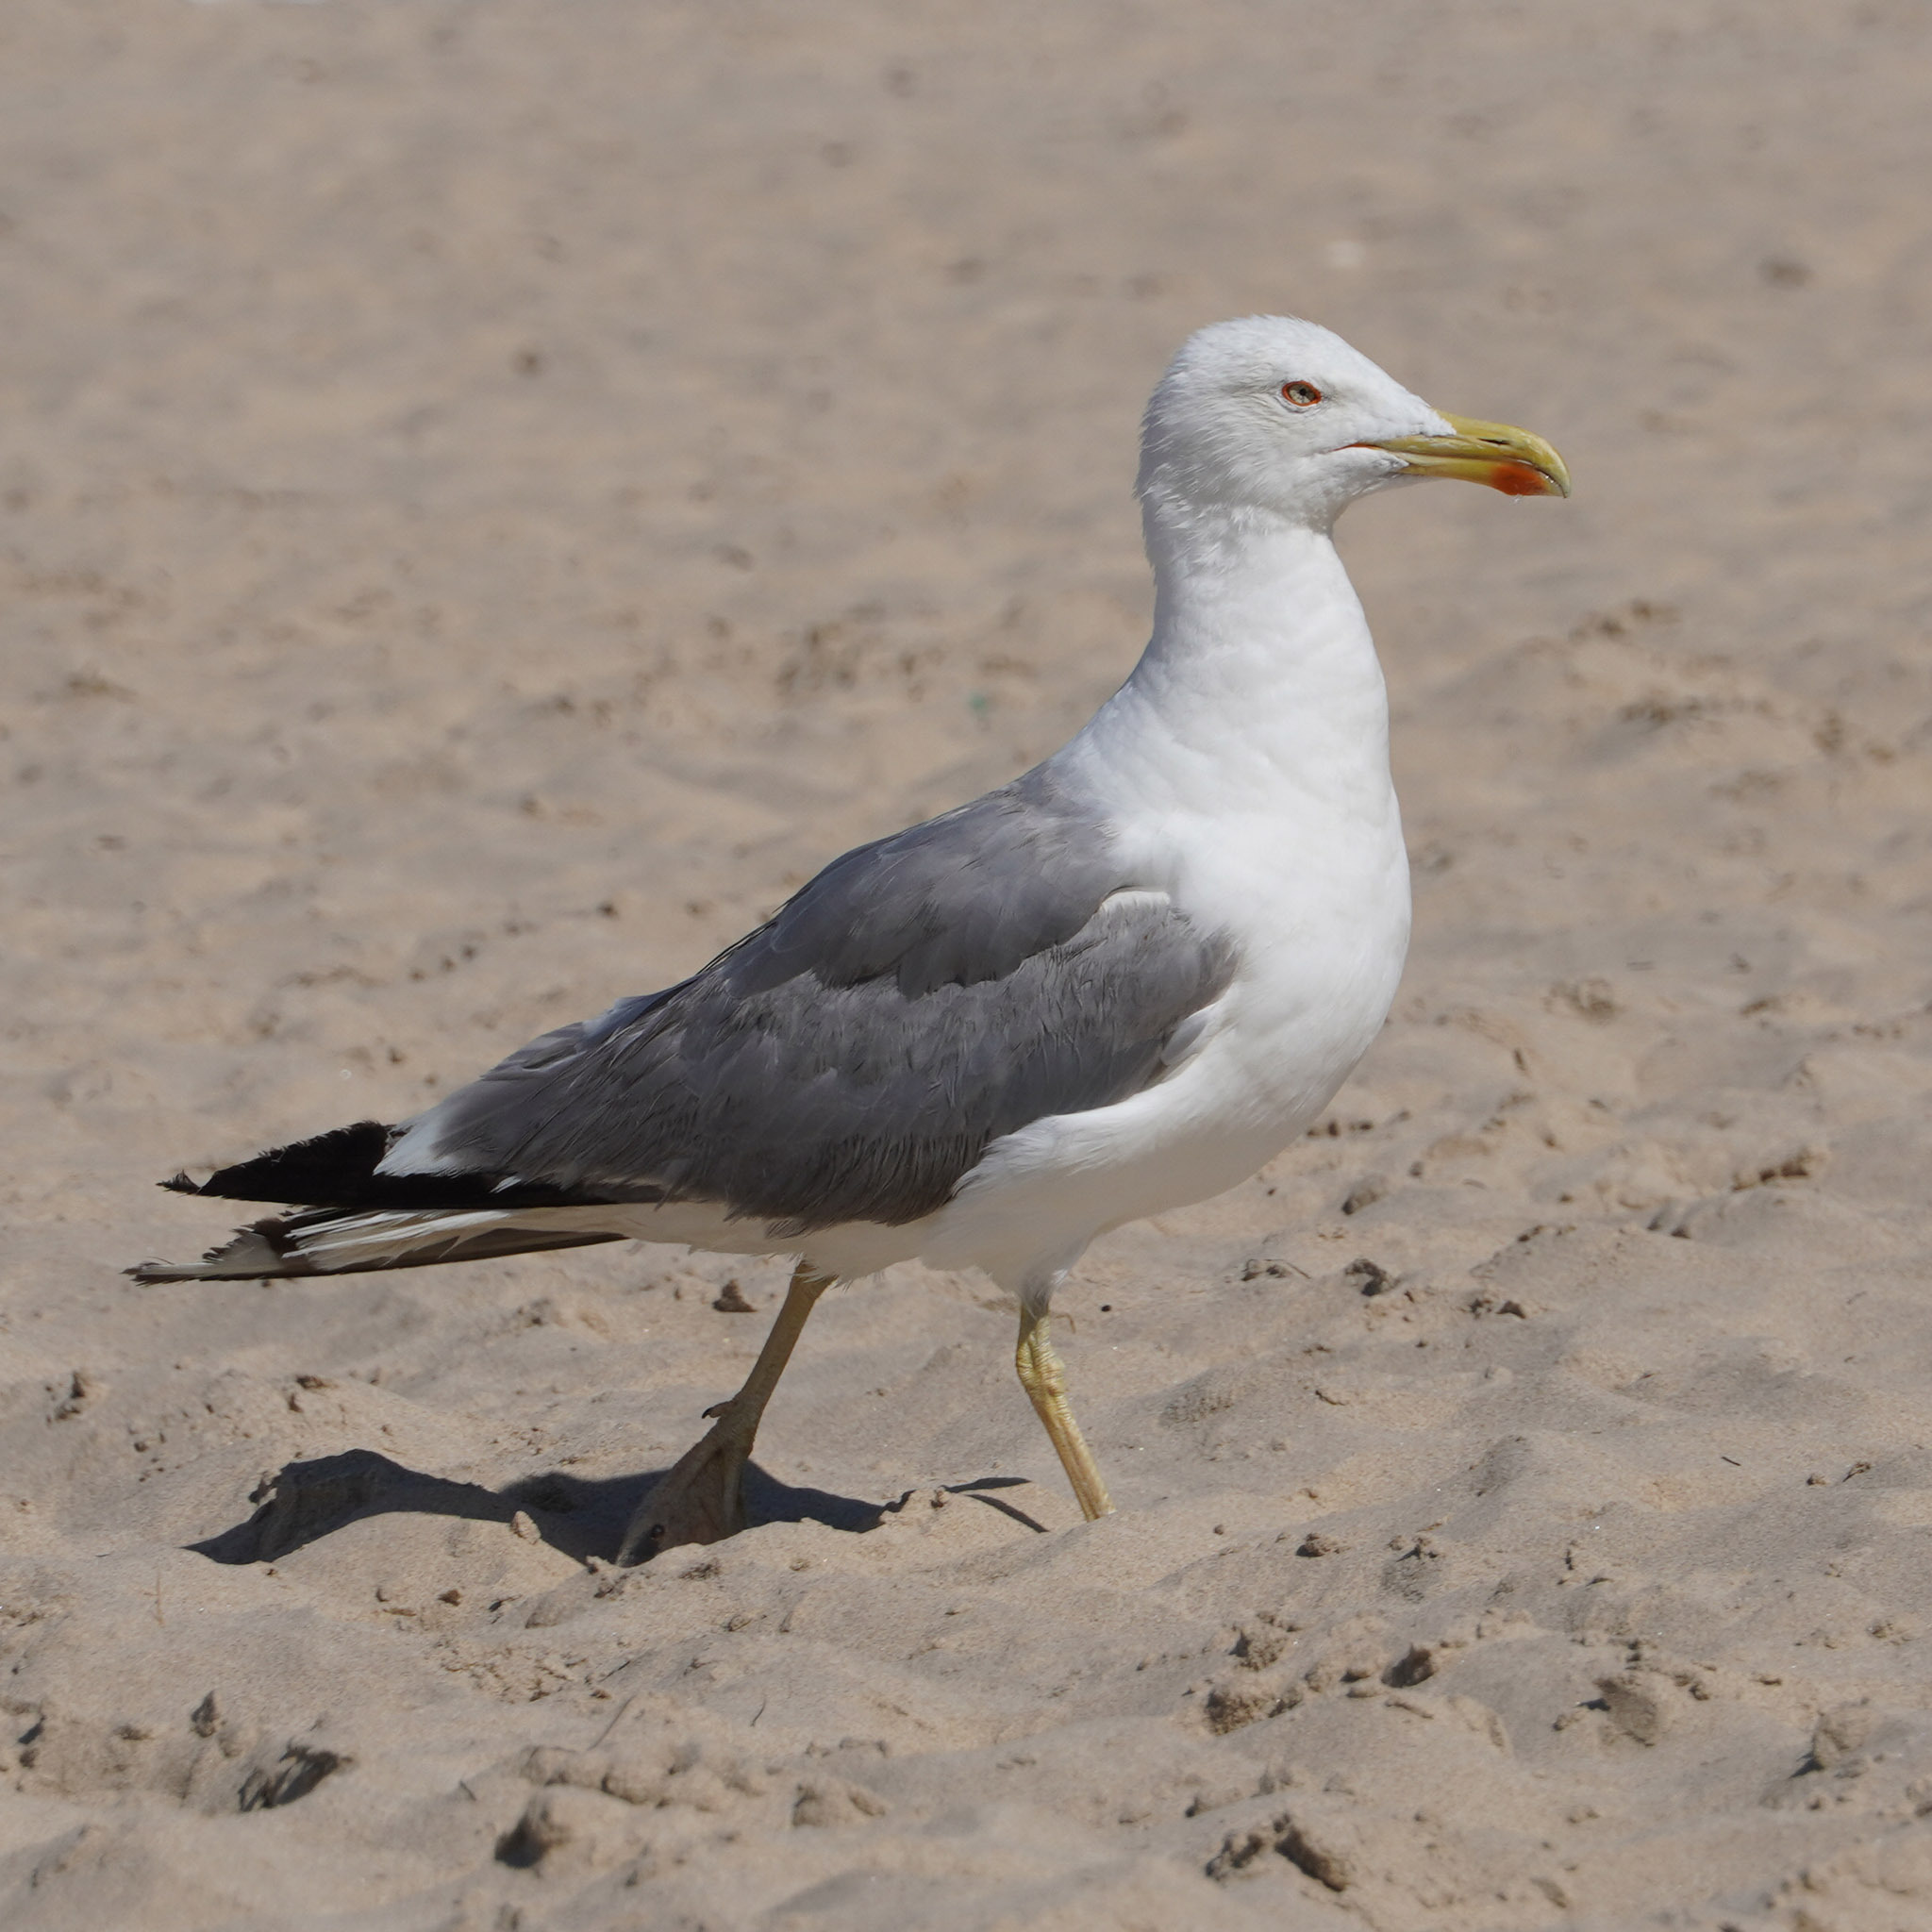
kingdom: Animalia
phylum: Chordata
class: Aves
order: Charadriiformes
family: Laridae
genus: Larus
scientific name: Larus michahellis
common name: Yellow-legged gull
